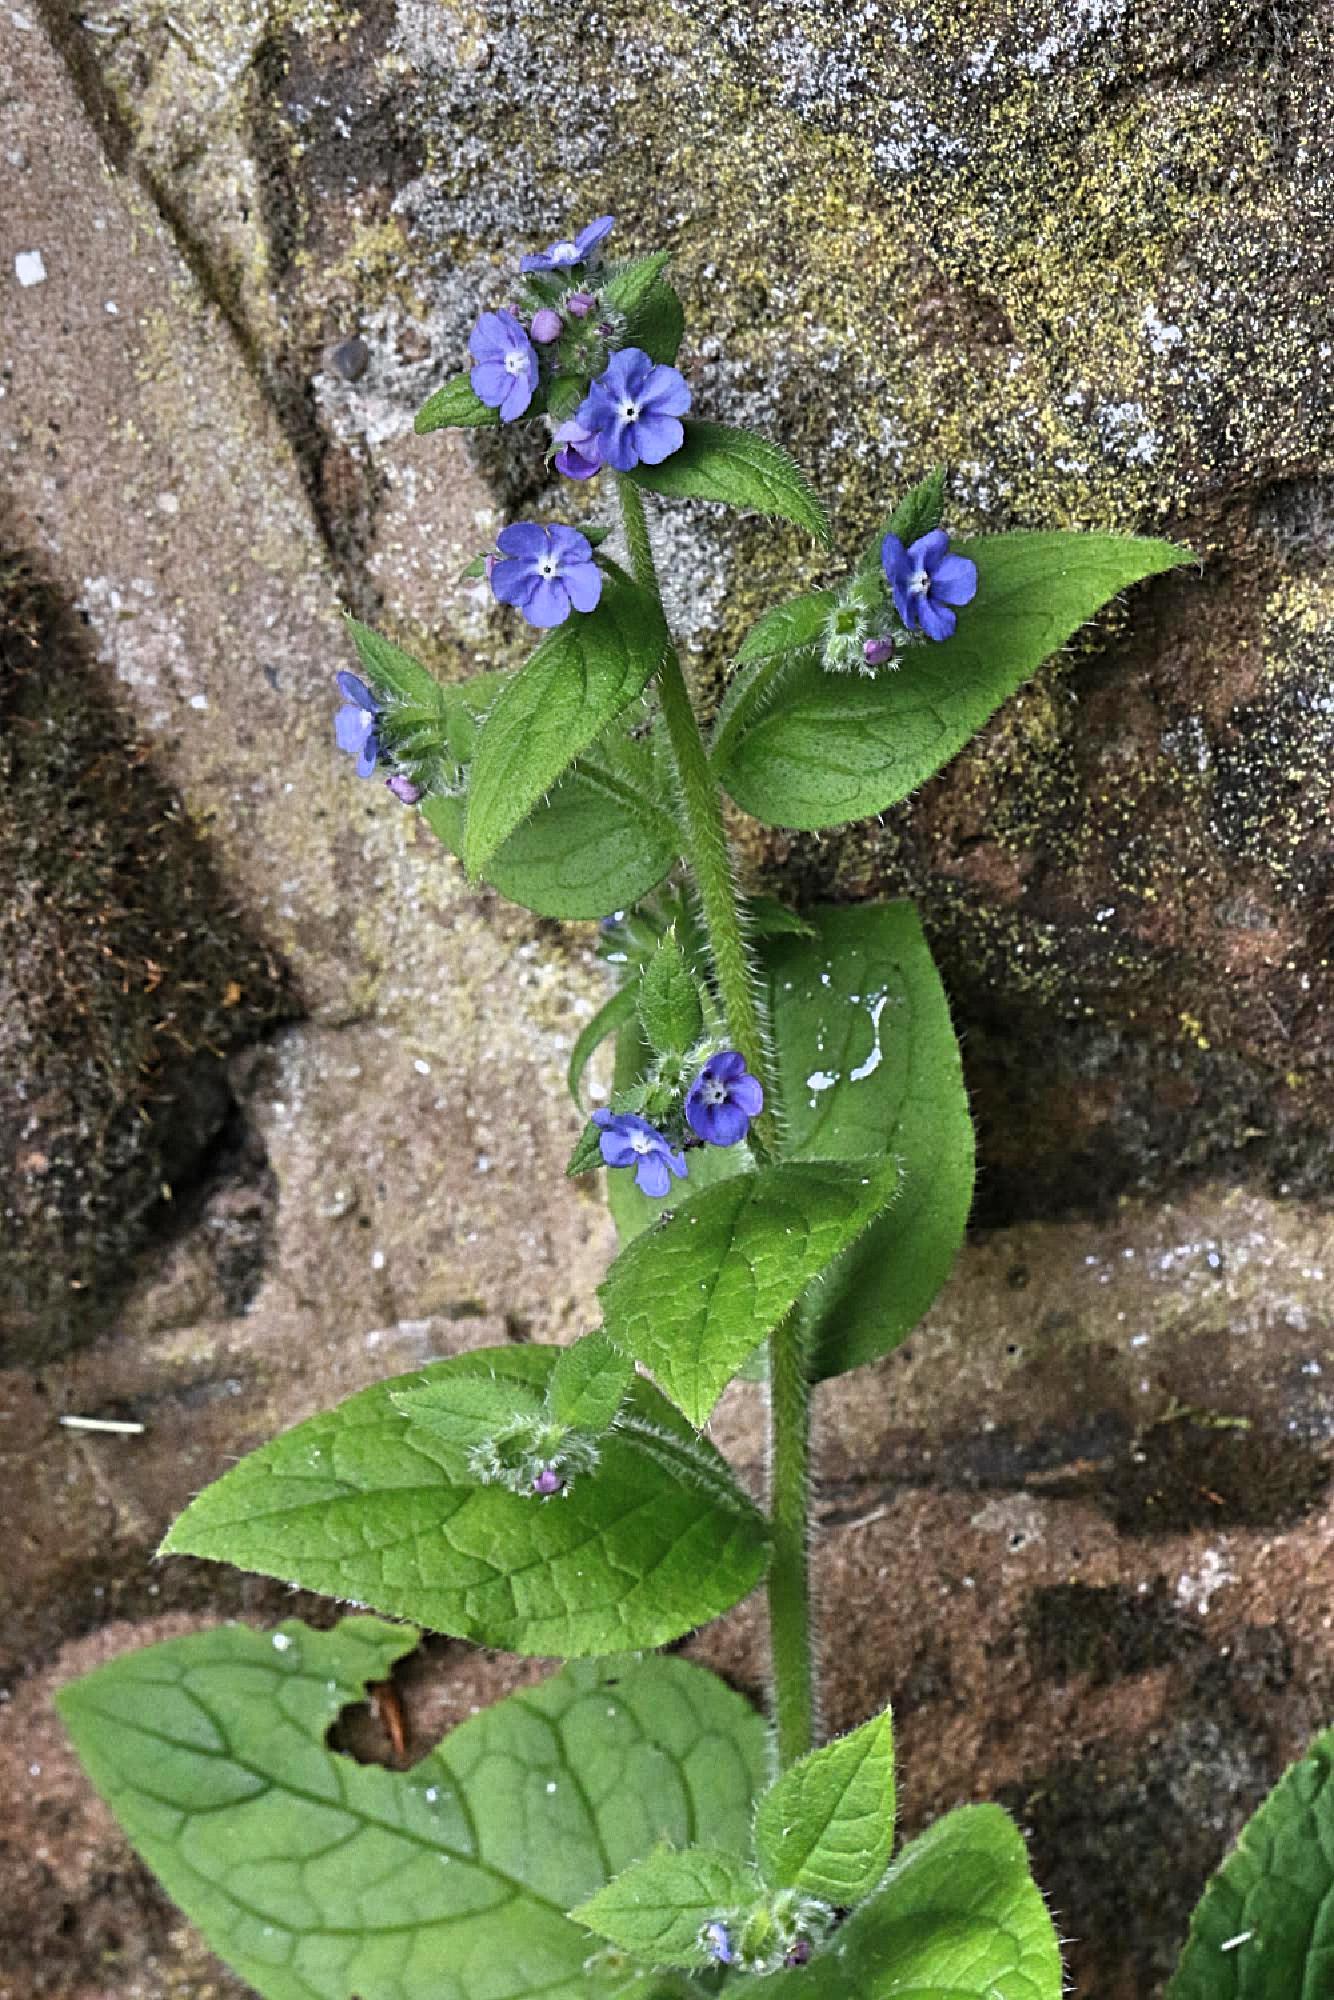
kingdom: Plantae
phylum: Tracheophyta
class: Magnoliopsida
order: Boraginales
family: Boraginaceae
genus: Pentaglottis
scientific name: Pentaglottis sempervirens
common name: Green alkanet
